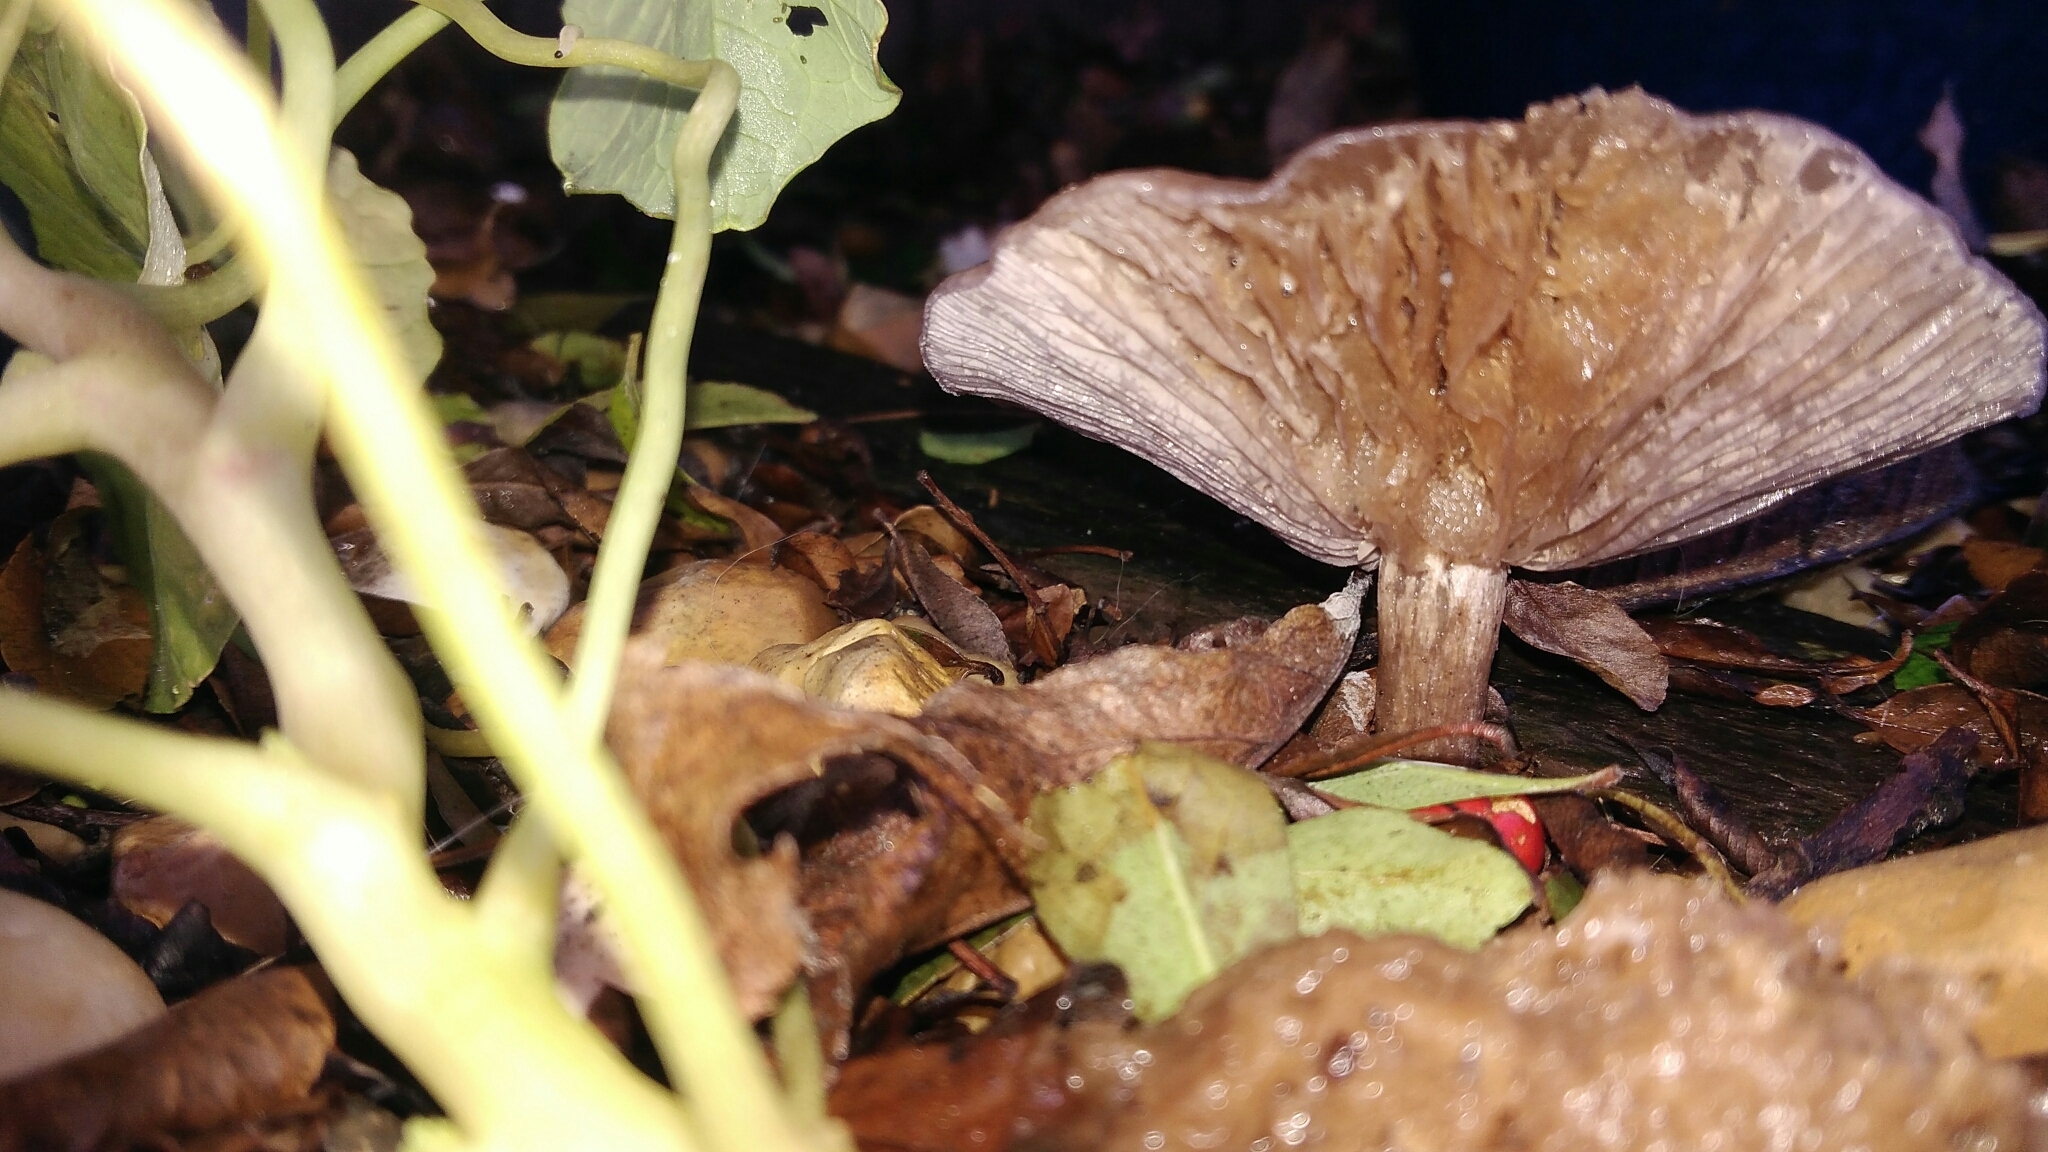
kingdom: Fungi
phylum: Basidiomycota
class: Agaricomycetes
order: Agaricales
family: Tricholomataceae
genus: Collybia
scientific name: Collybia
